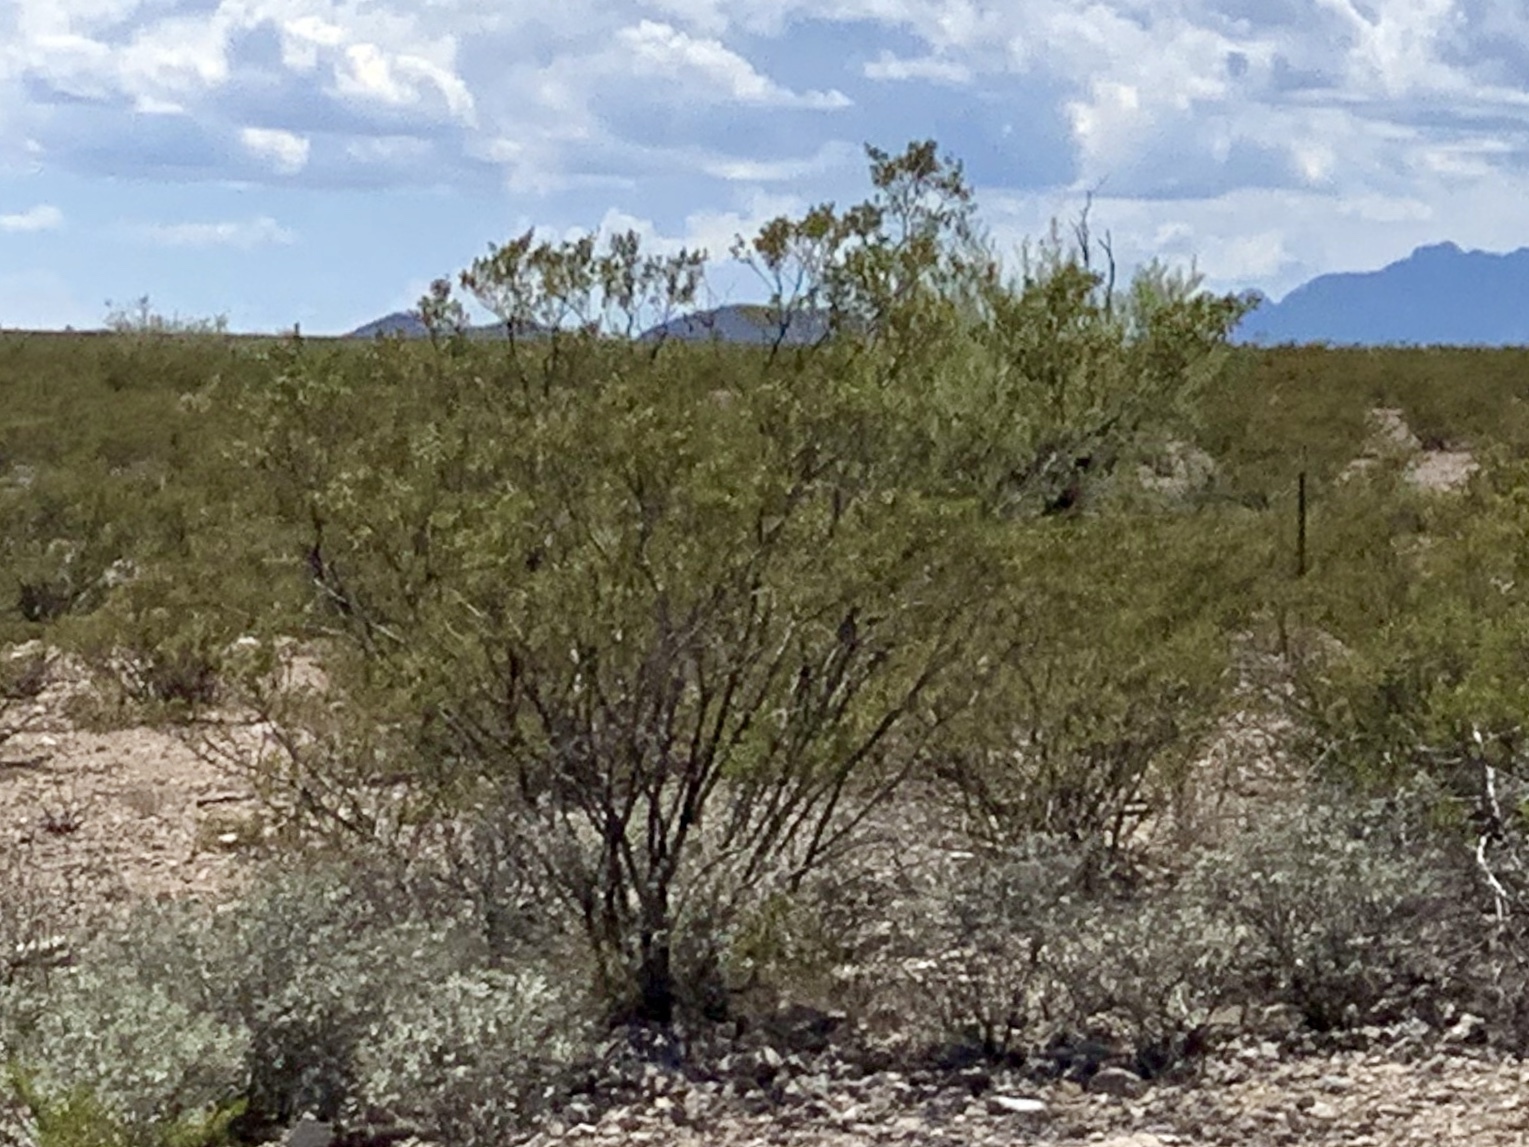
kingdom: Plantae
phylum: Tracheophyta
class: Magnoliopsida
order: Zygophyllales
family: Zygophyllaceae
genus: Larrea
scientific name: Larrea tridentata
